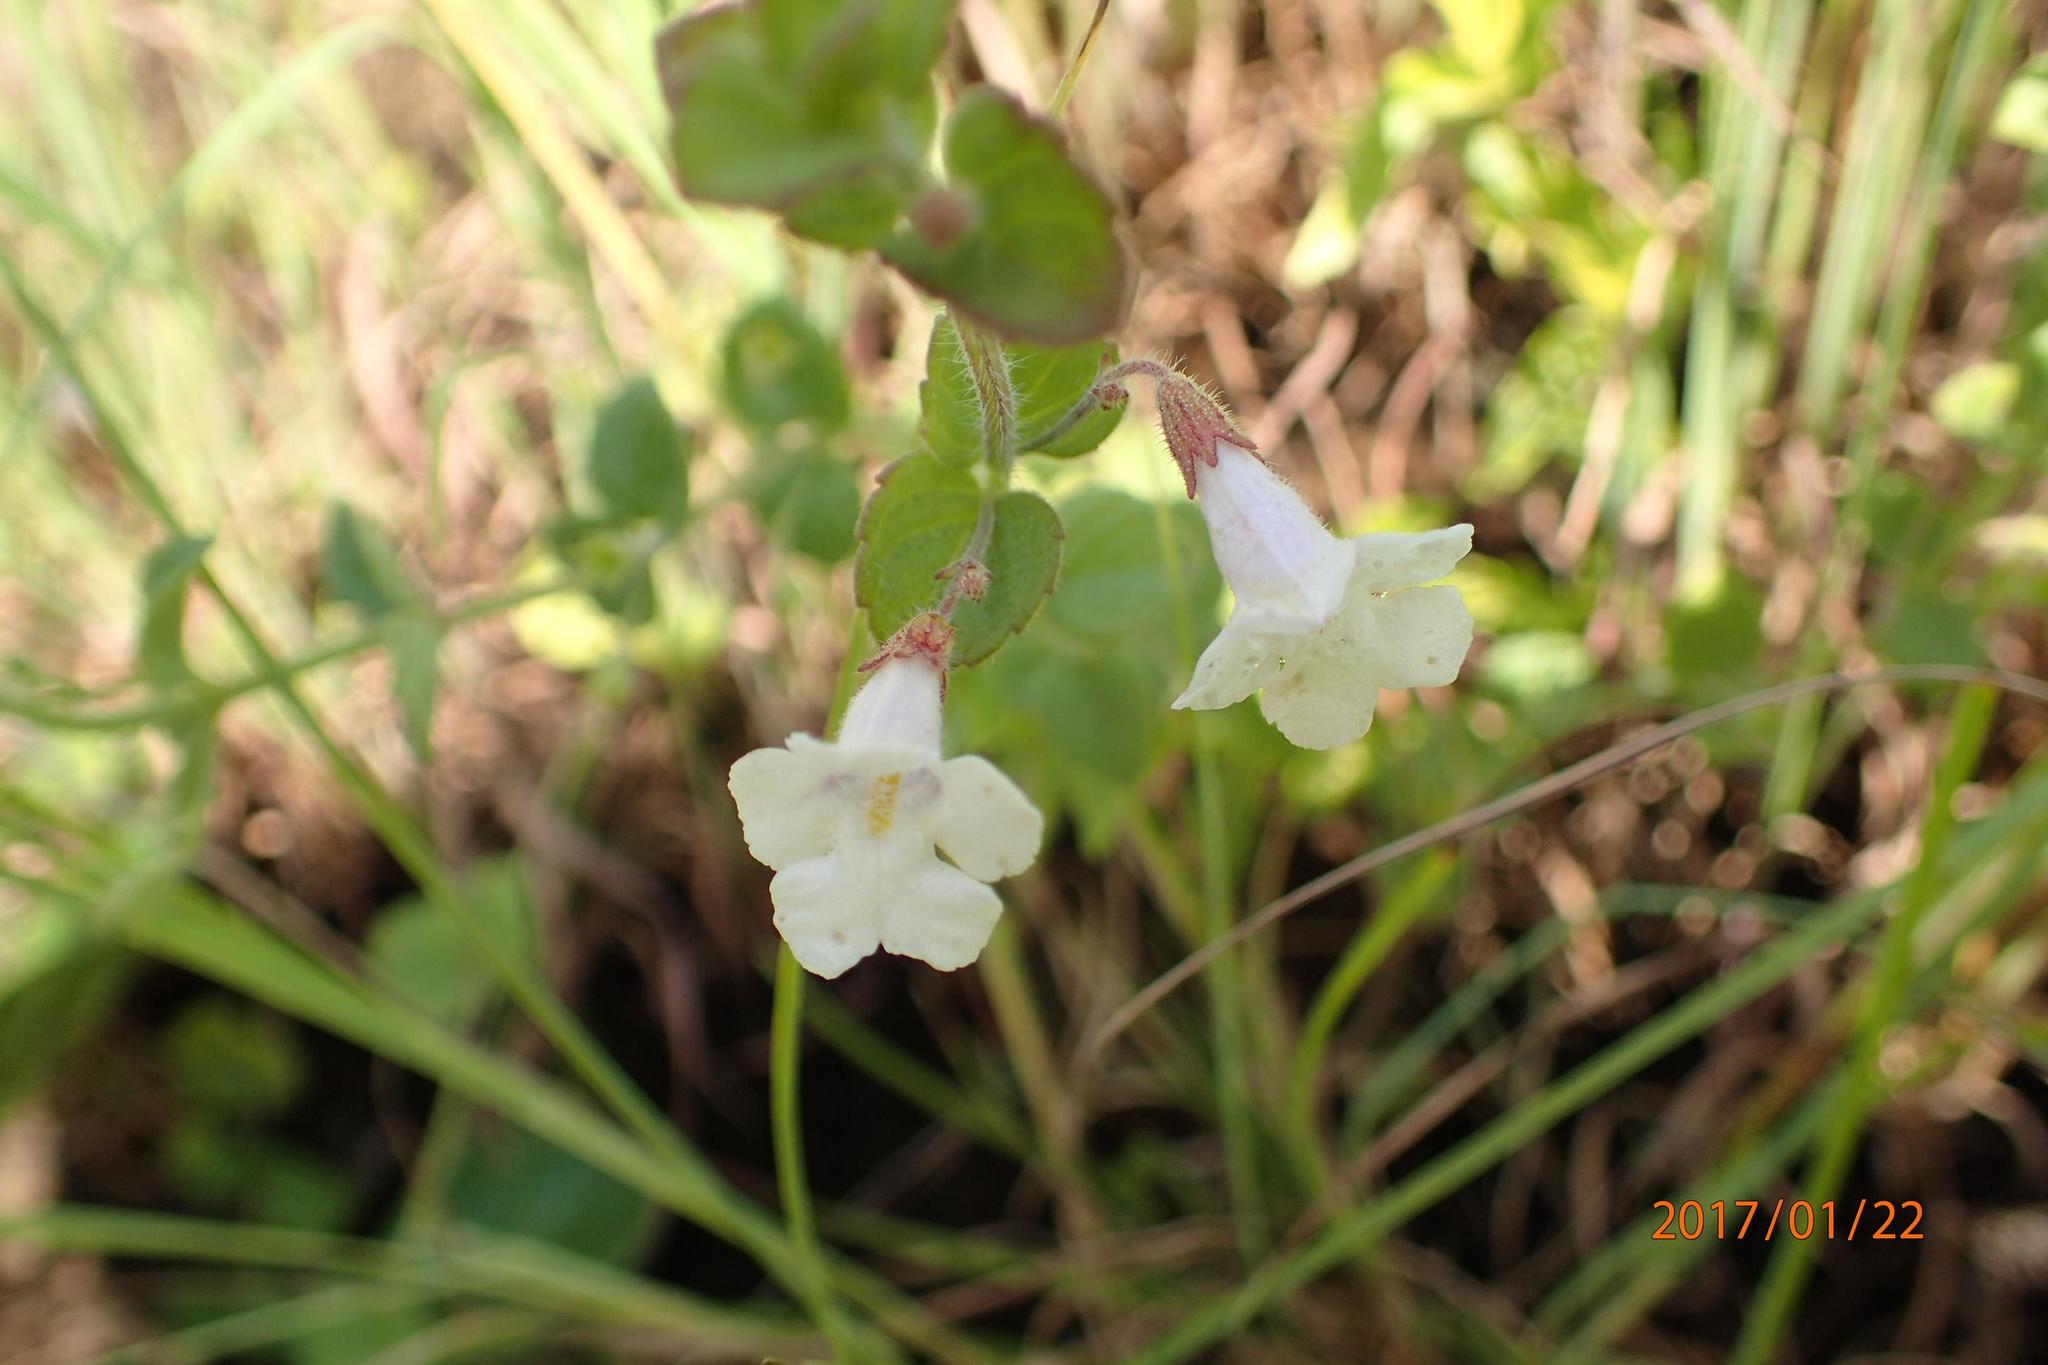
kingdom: Plantae
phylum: Tracheophyta
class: Magnoliopsida
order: Lamiales
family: Lamiaceae
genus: Killickia
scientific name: Killickia pilosa
